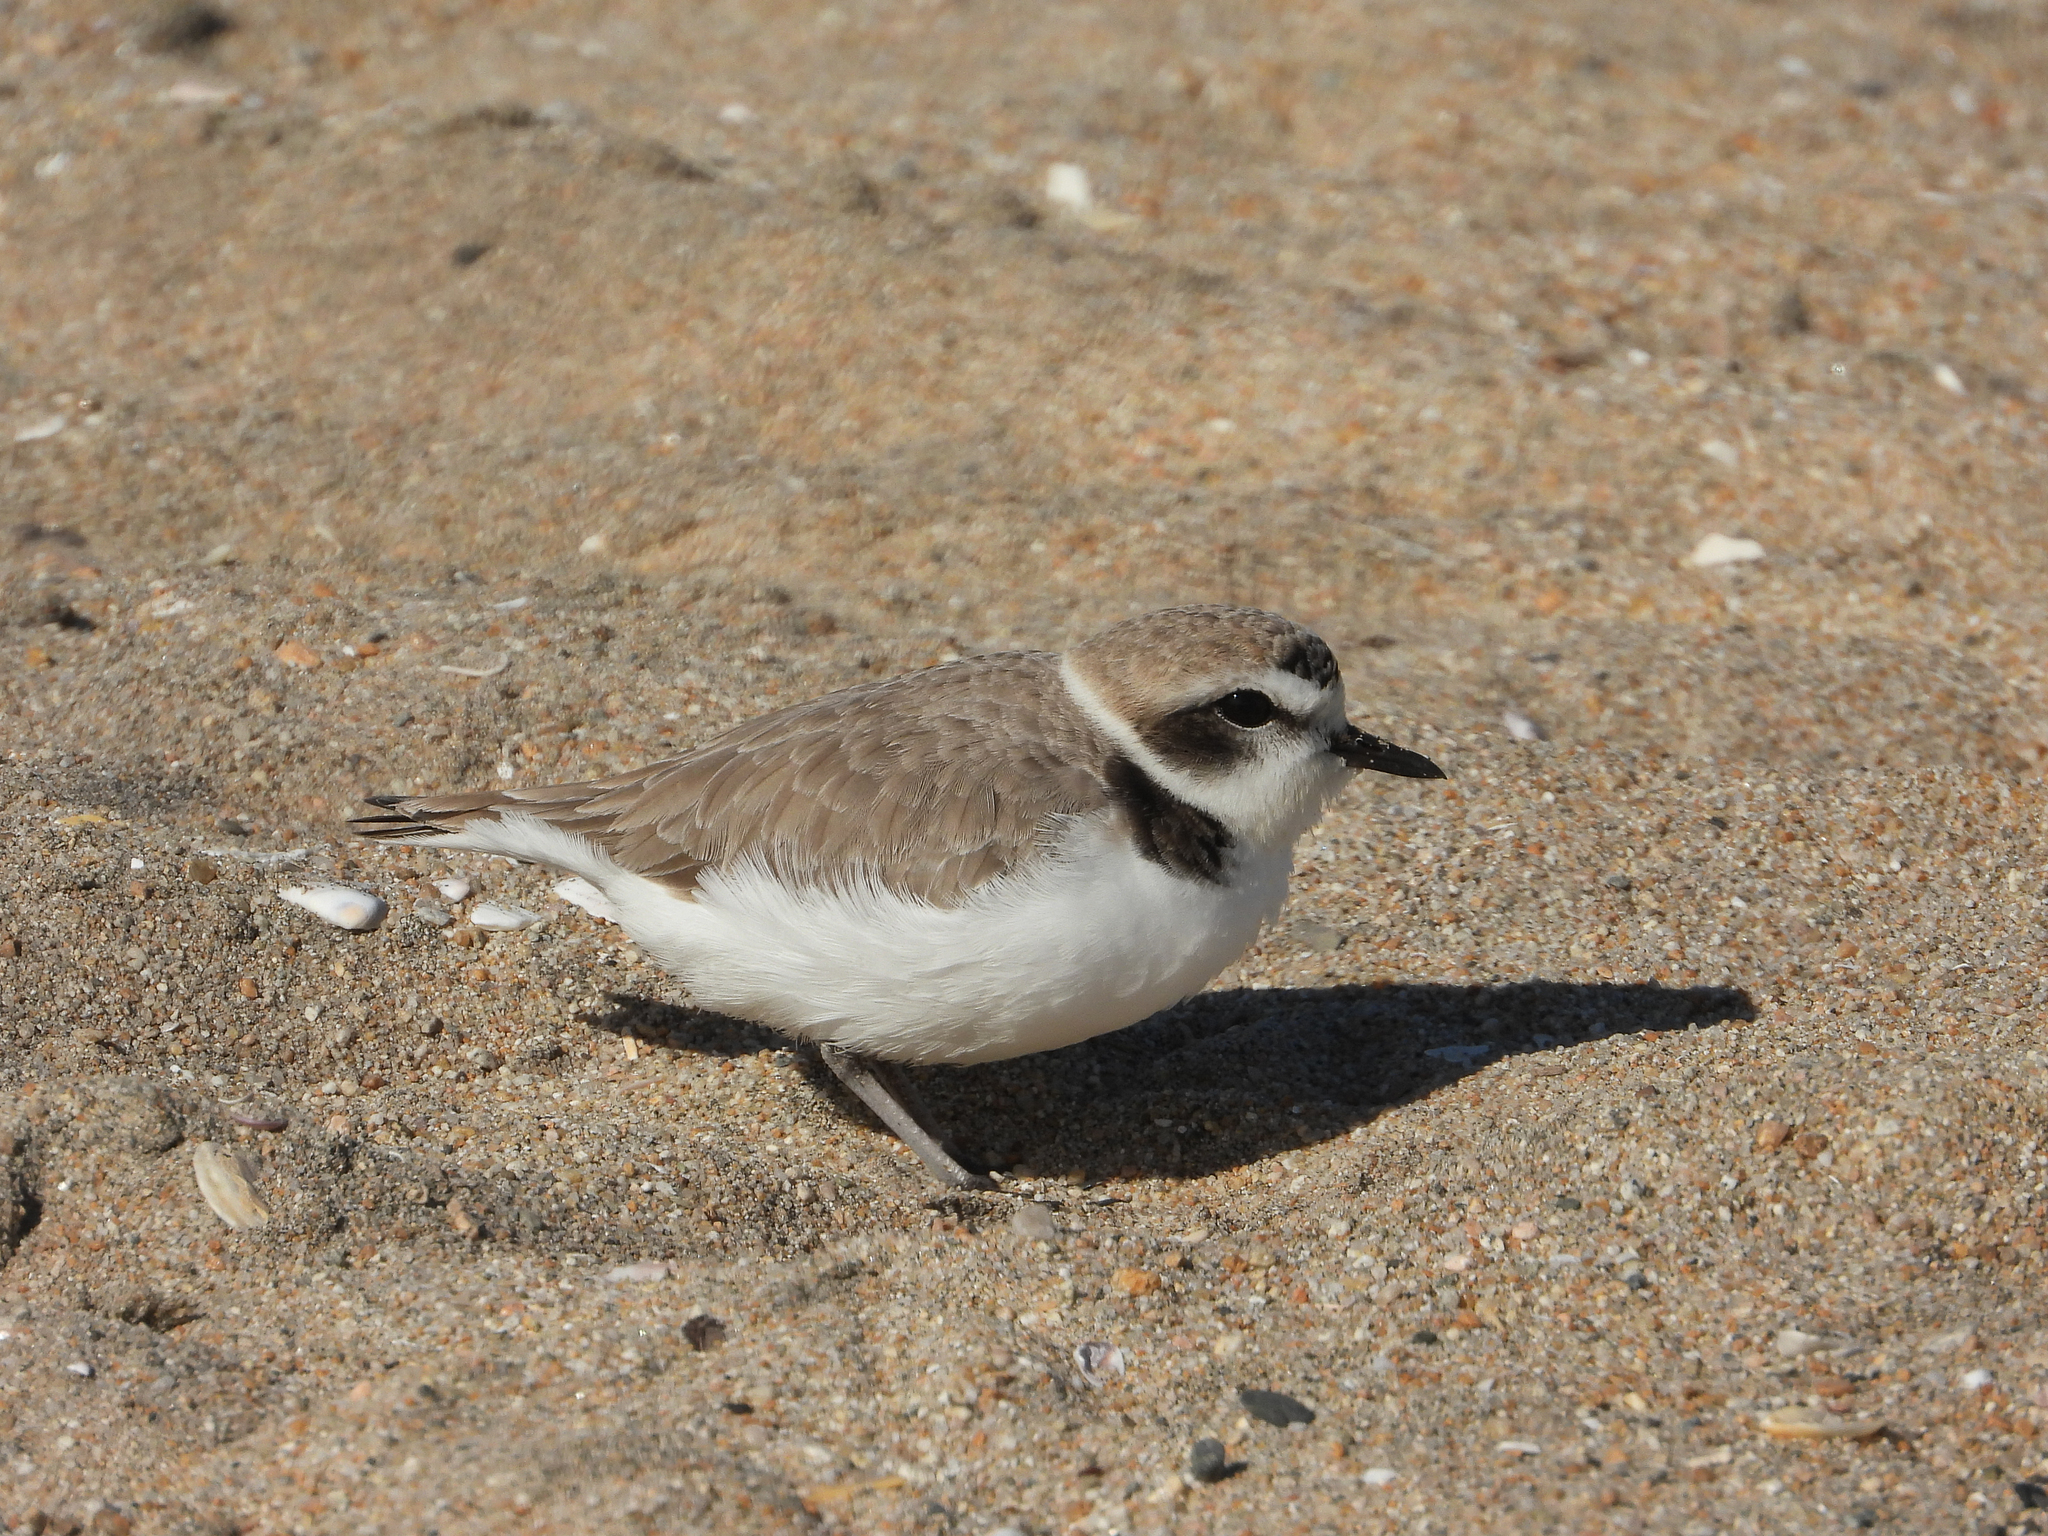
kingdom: Animalia
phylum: Chordata
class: Aves
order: Charadriiformes
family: Charadriidae
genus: Anarhynchus
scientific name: Anarhynchus
